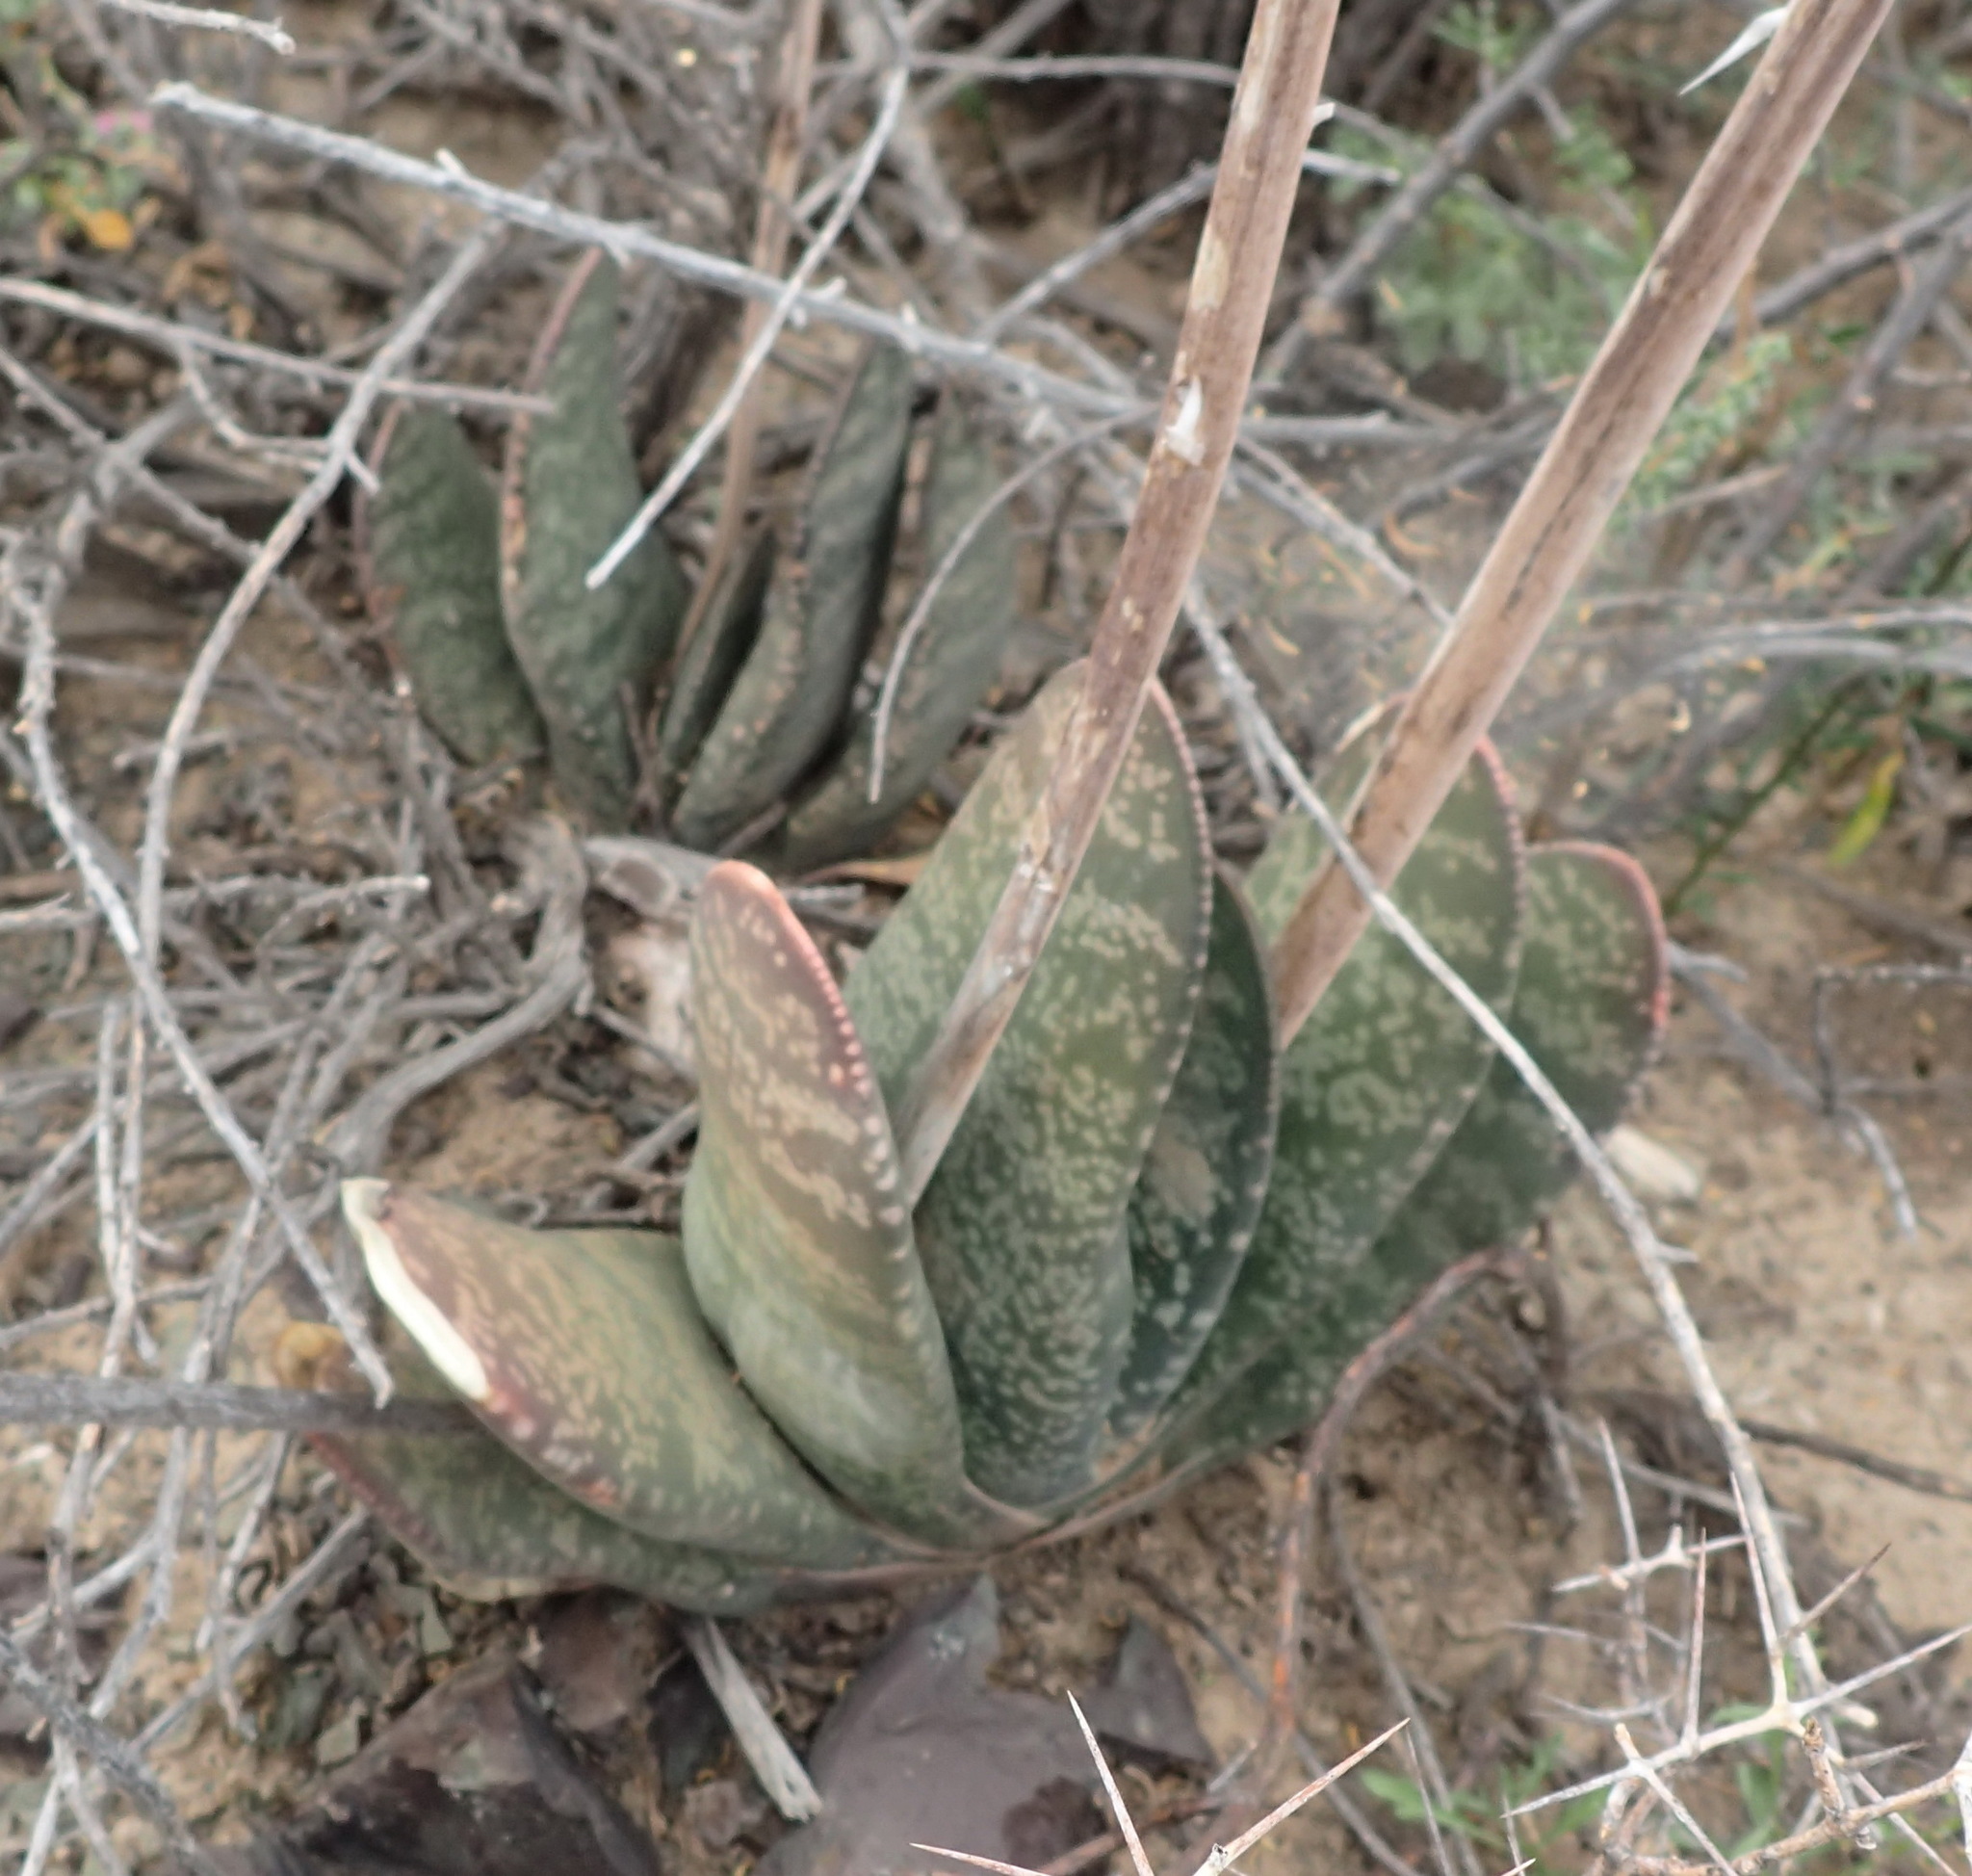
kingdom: Plantae
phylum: Tracheophyta
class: Liliopsida
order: Asparagales
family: Asphodelaceae
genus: Gasteria
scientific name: Gasteria disticha
